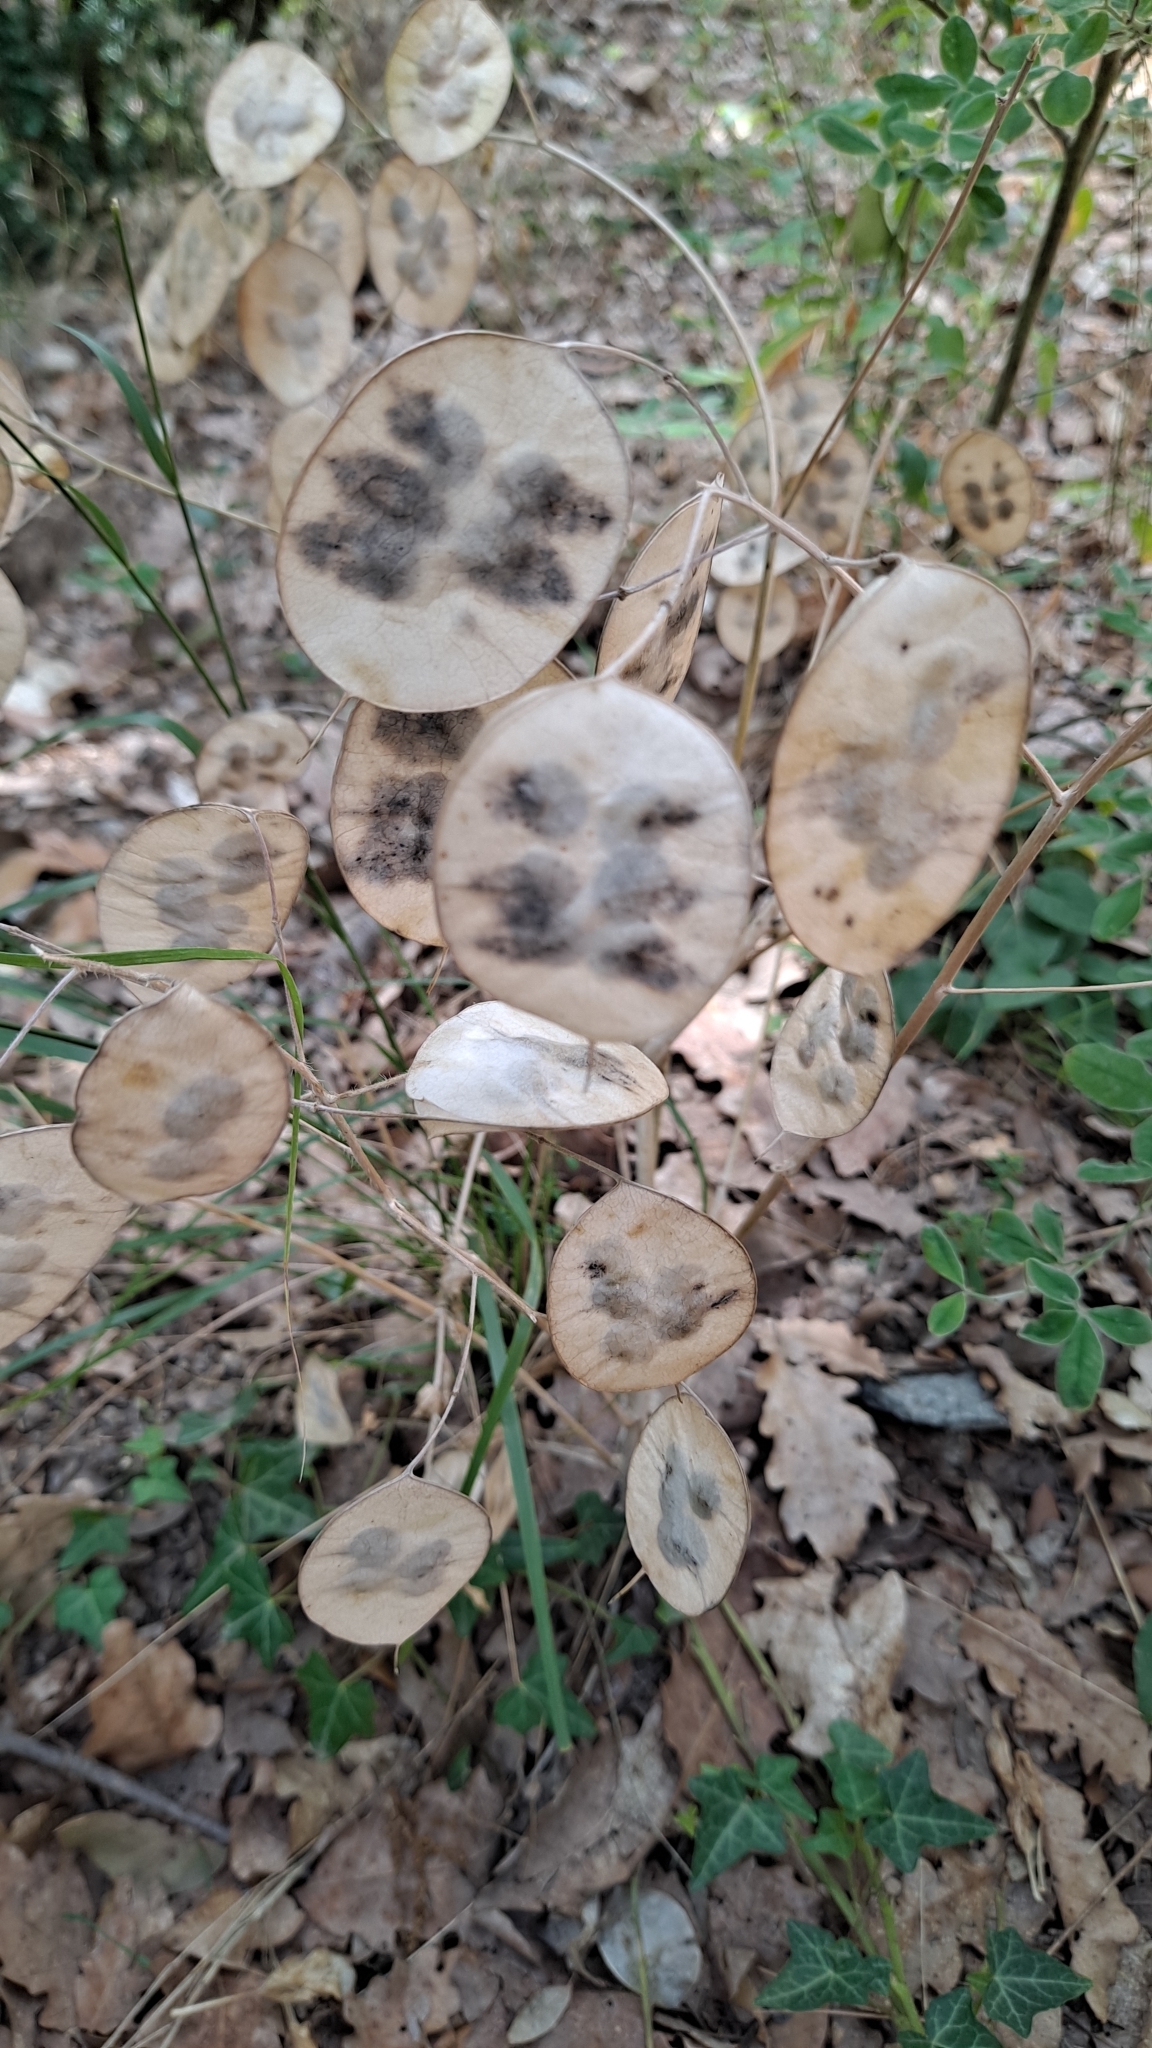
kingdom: Plantae
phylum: Tracheophyta
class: Magnoliopsida
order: Brassicales
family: Brassicaceae
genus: Lunaria
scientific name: Lunaria annua
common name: Honesty
